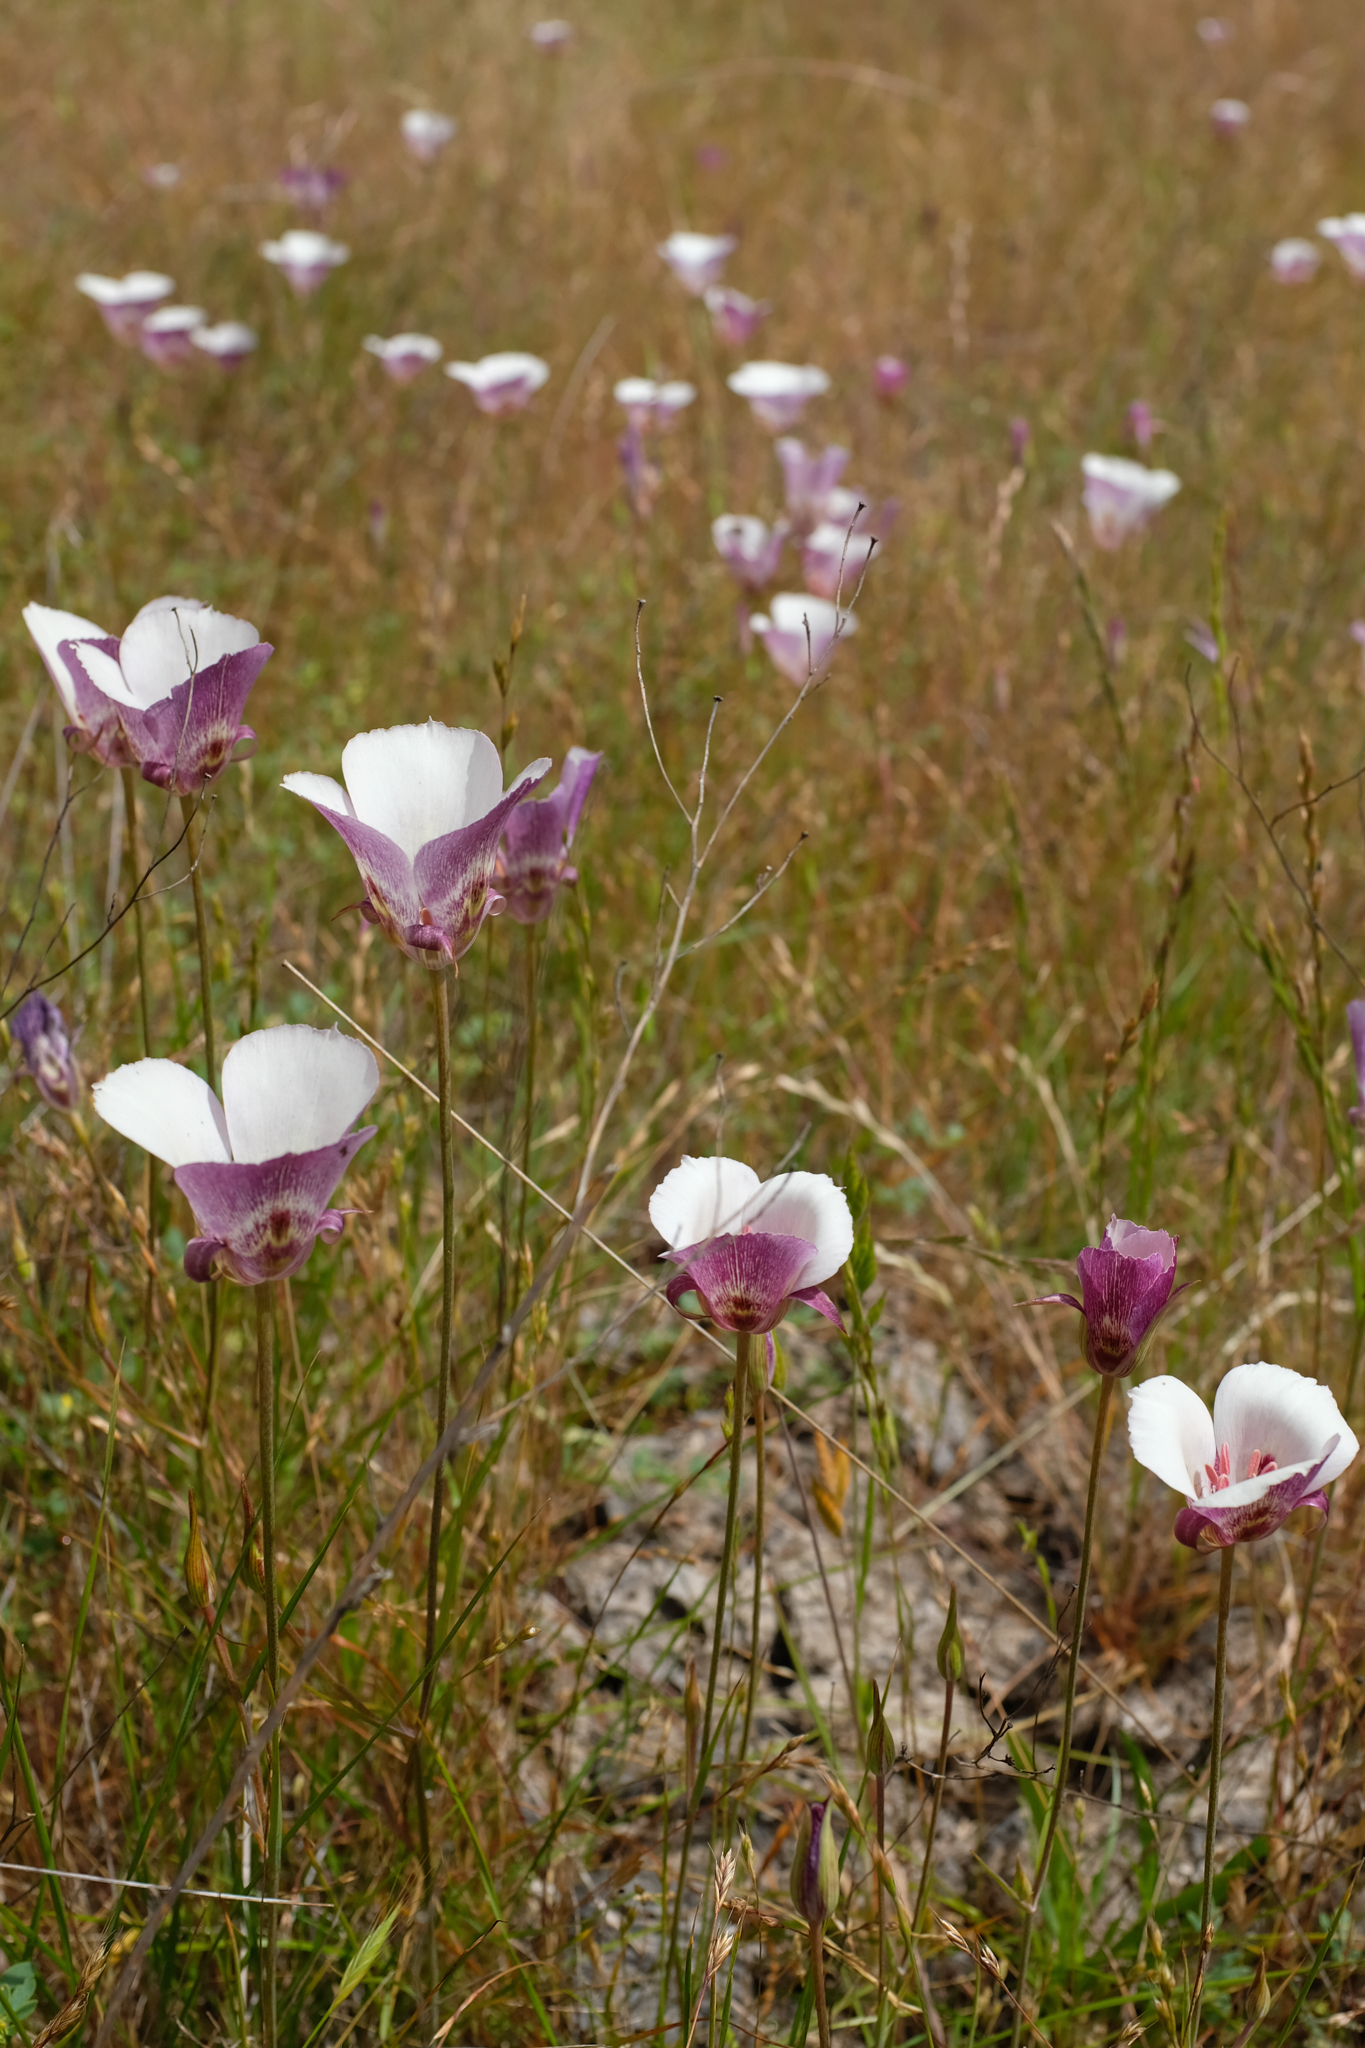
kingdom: Plantae
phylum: Tracheophyta
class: Liliopsida
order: Liliales
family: Liliaceae
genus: Calochortus
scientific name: Calochortus argillosus
